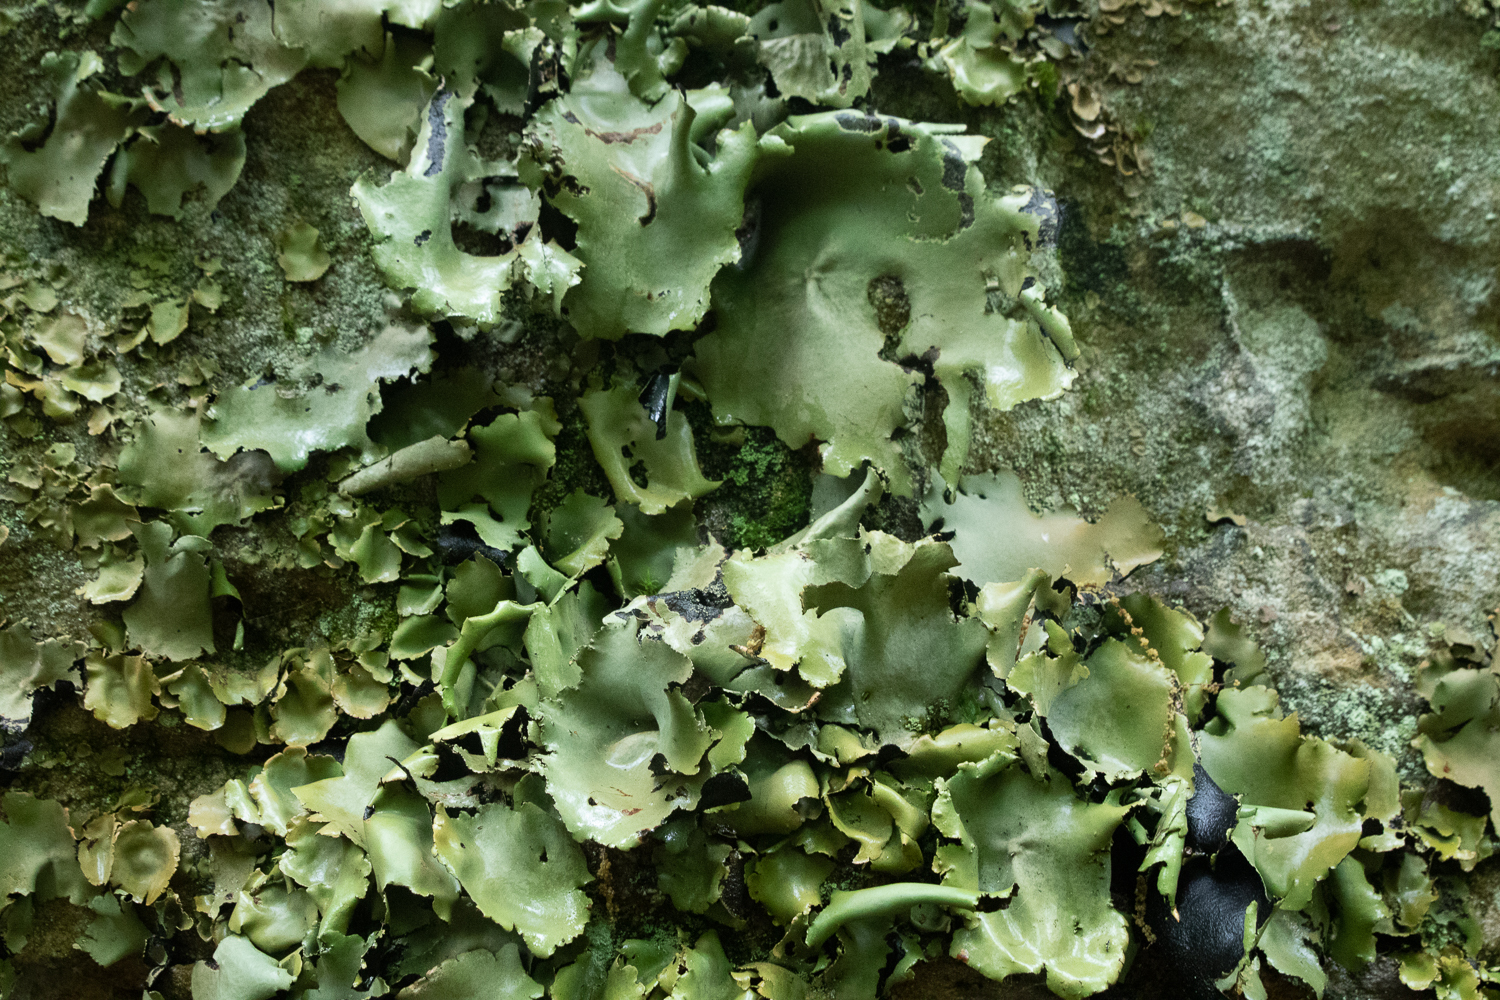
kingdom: Fungi
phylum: Ascomycota
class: Lecanoromycetes
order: Umbilicariales
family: Umbilicariaceae
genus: Umbilicaria
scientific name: Umbilicaria mammulata
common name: Smooth rock tripe
